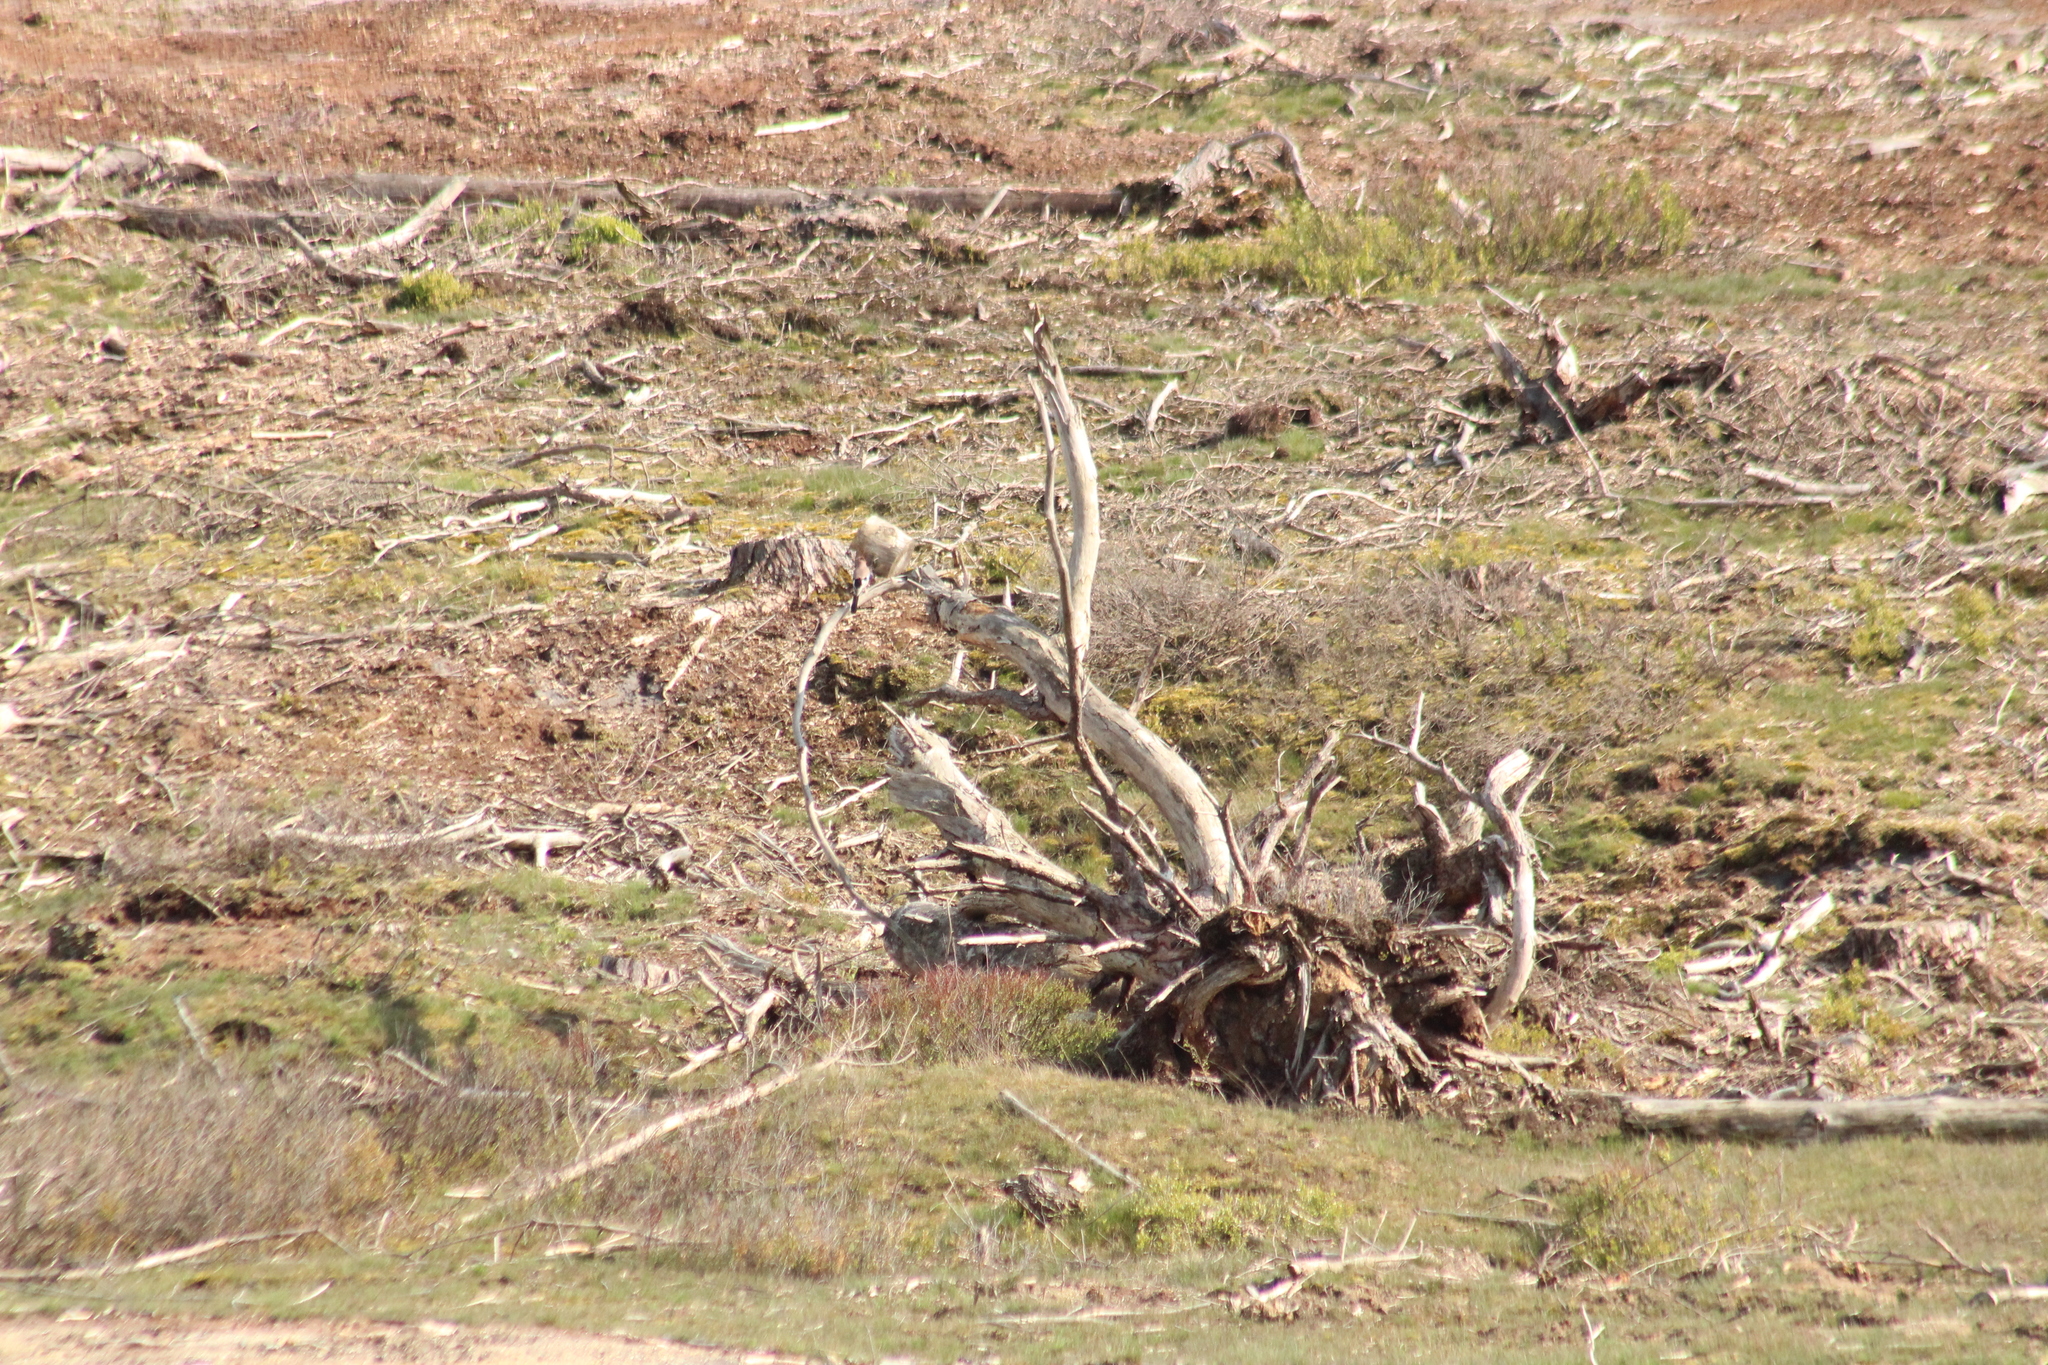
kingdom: Animalia
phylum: Chordata
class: Aves
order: Passeriformes
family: Corvidae
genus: Garrulus
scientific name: Garrulus glandarius
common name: Eurasian jay
